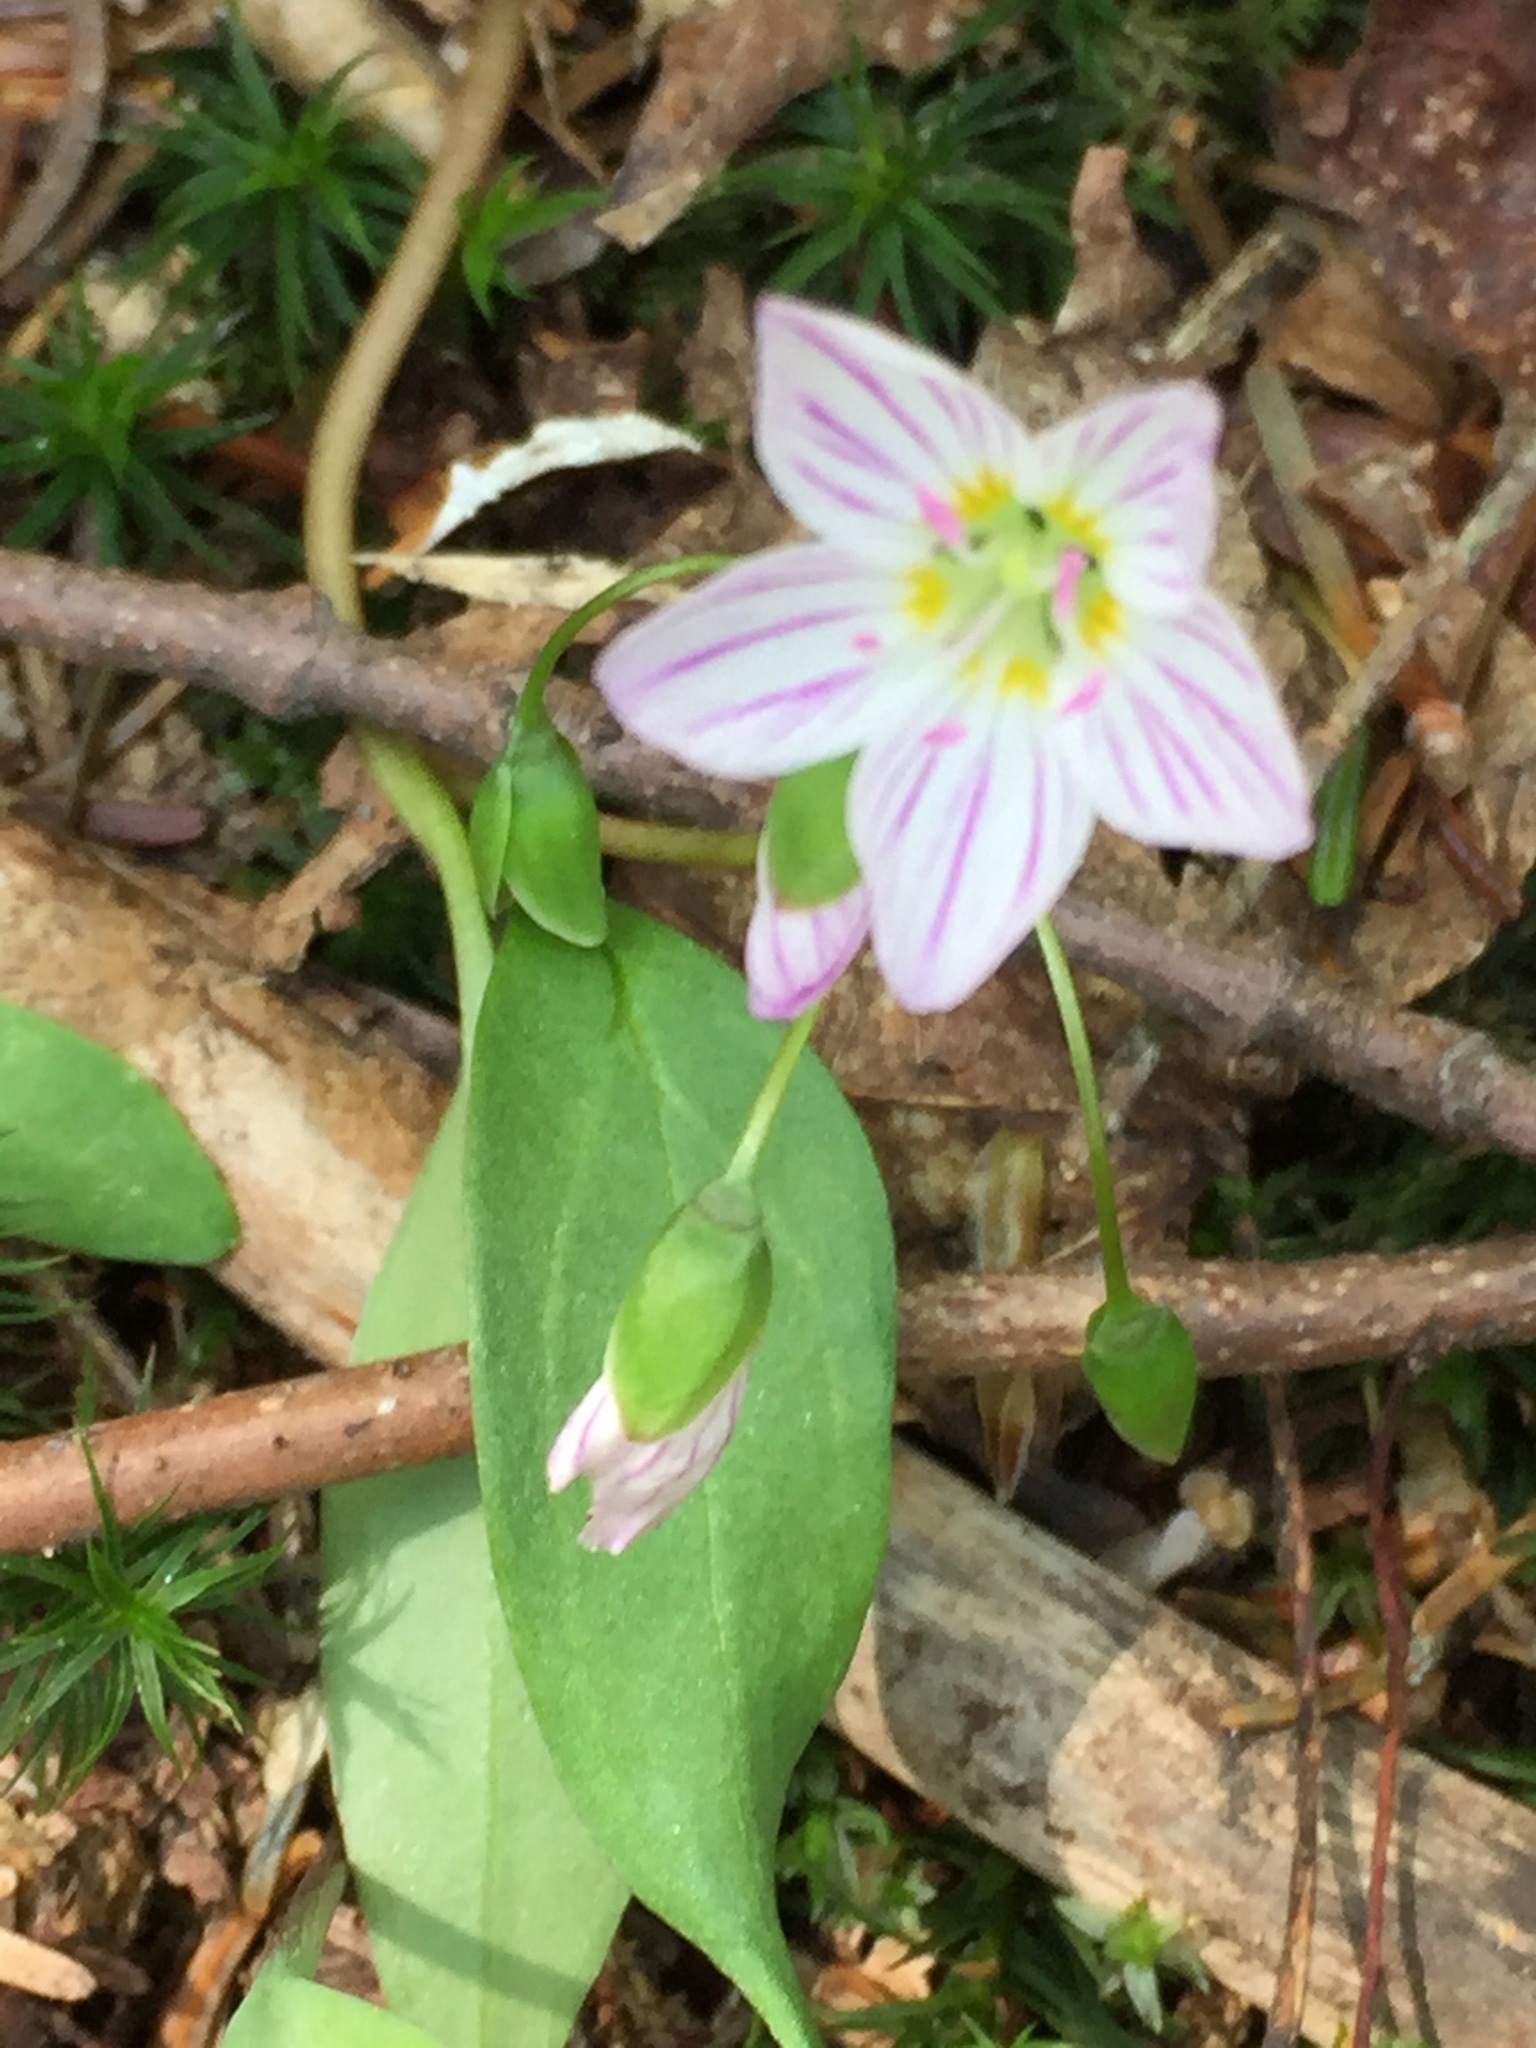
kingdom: Plantae
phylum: Tracheophyta
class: Magnoliopsida
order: Caryophyllales
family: Montiaceae
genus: Claytonia
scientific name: Claytonia caroliniana
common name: Carolina spring beauty
